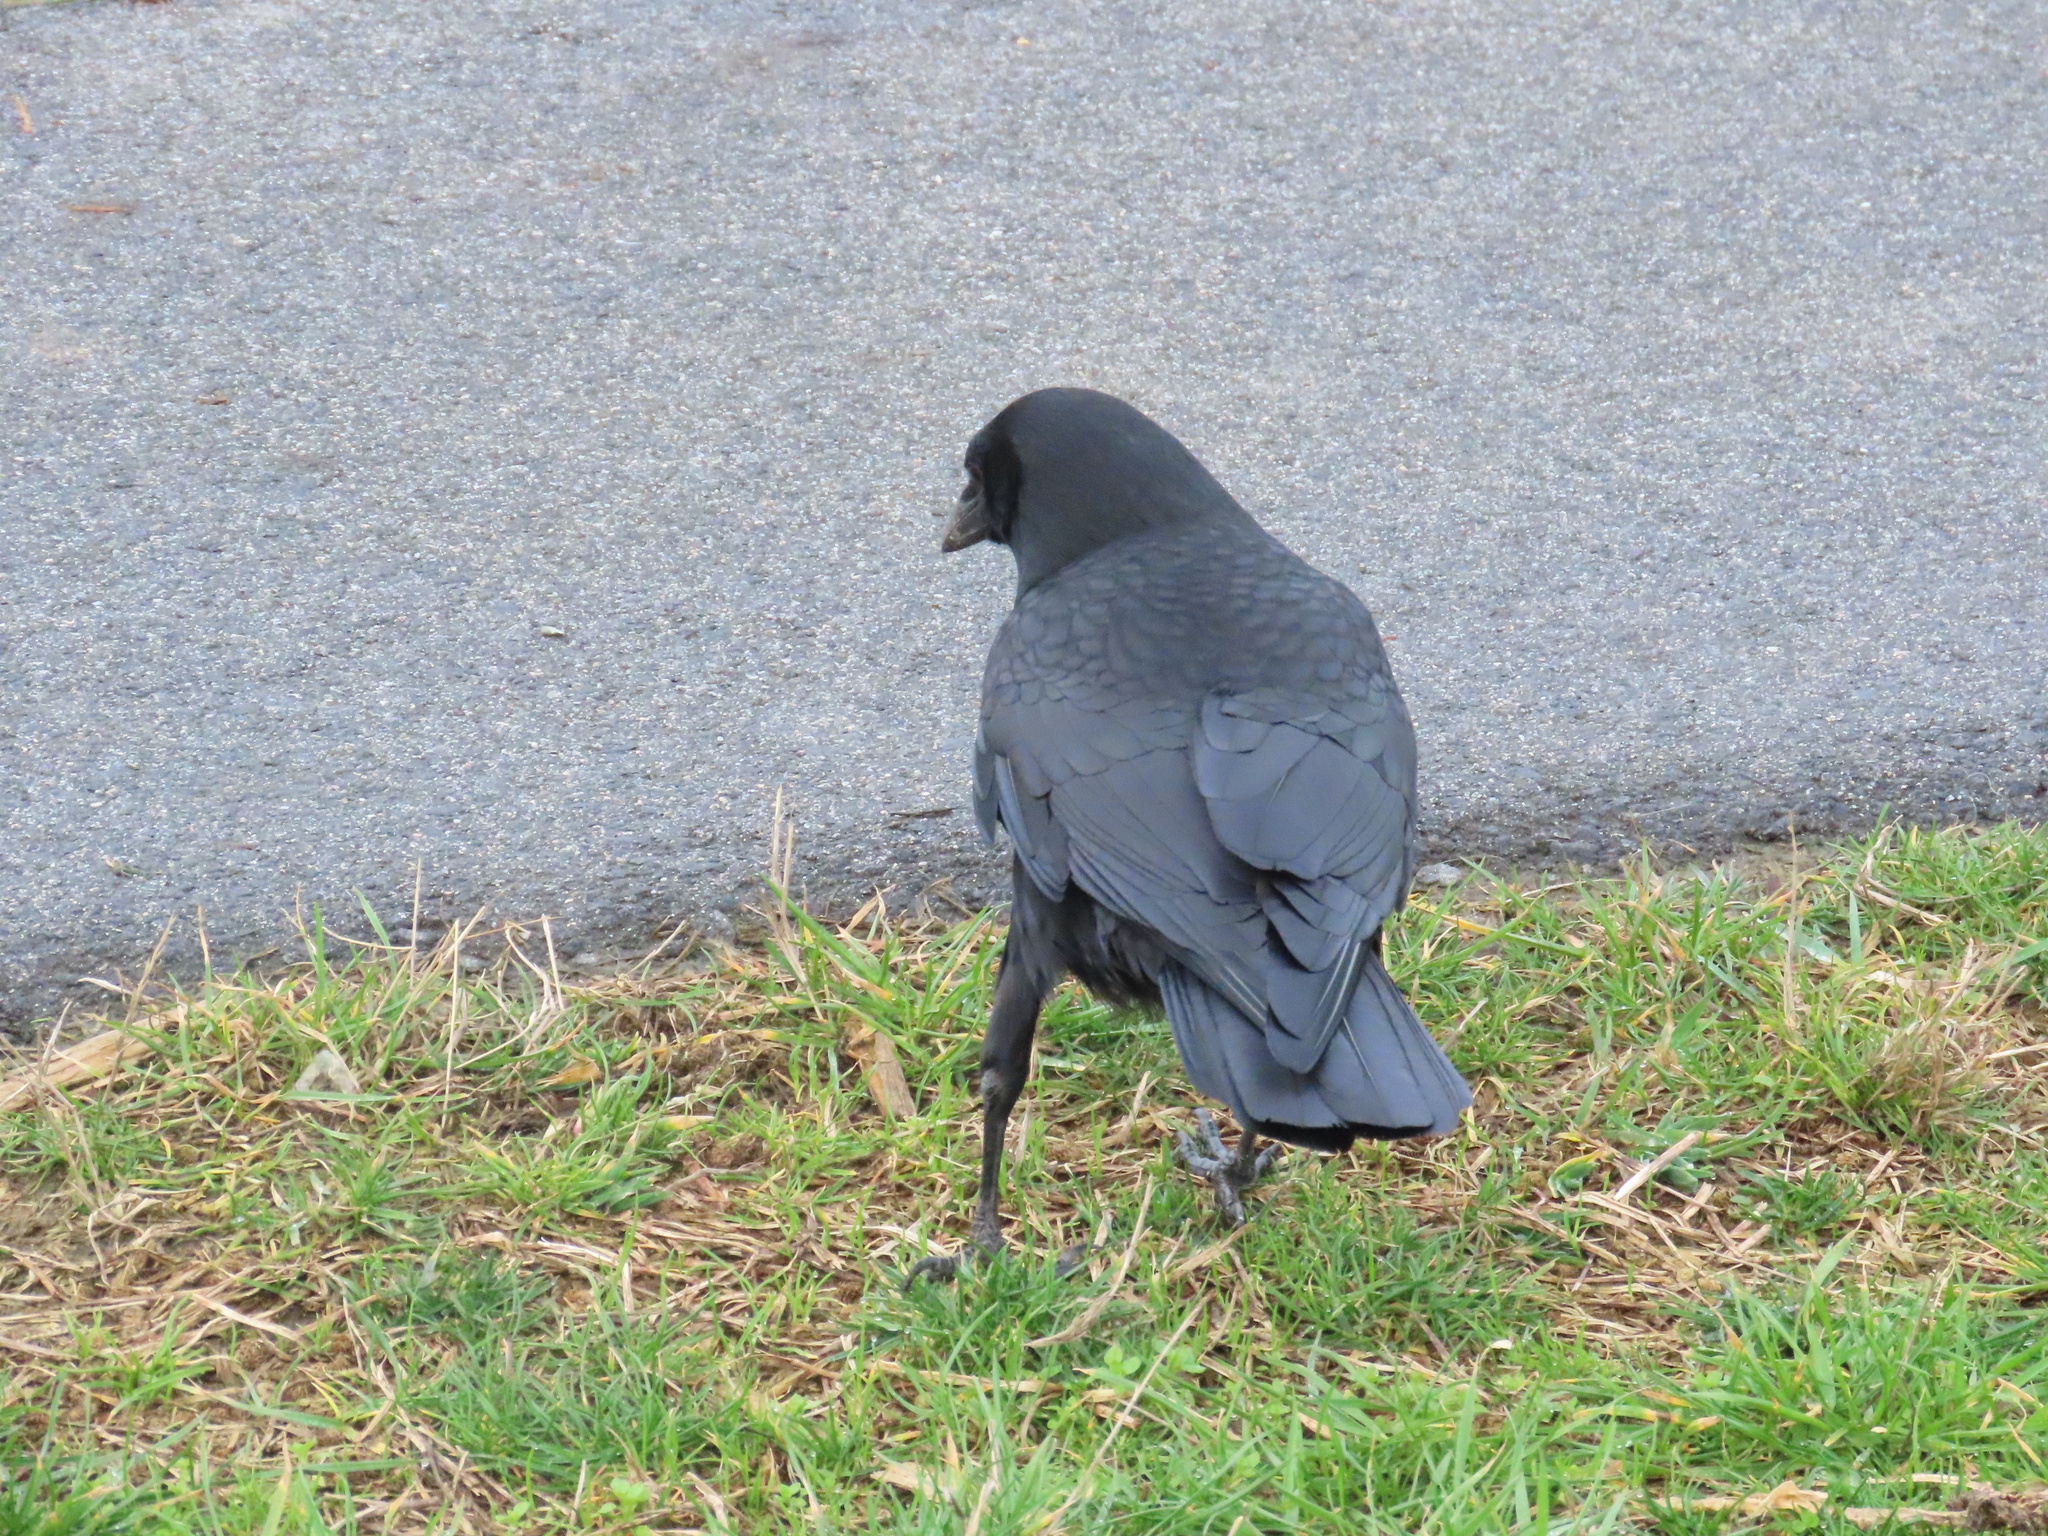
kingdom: Animalia
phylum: Chordata
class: Aves
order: Passeriformes
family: Corvidae
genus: Corvus
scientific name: Corvus brachyrhynchos
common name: American crow
